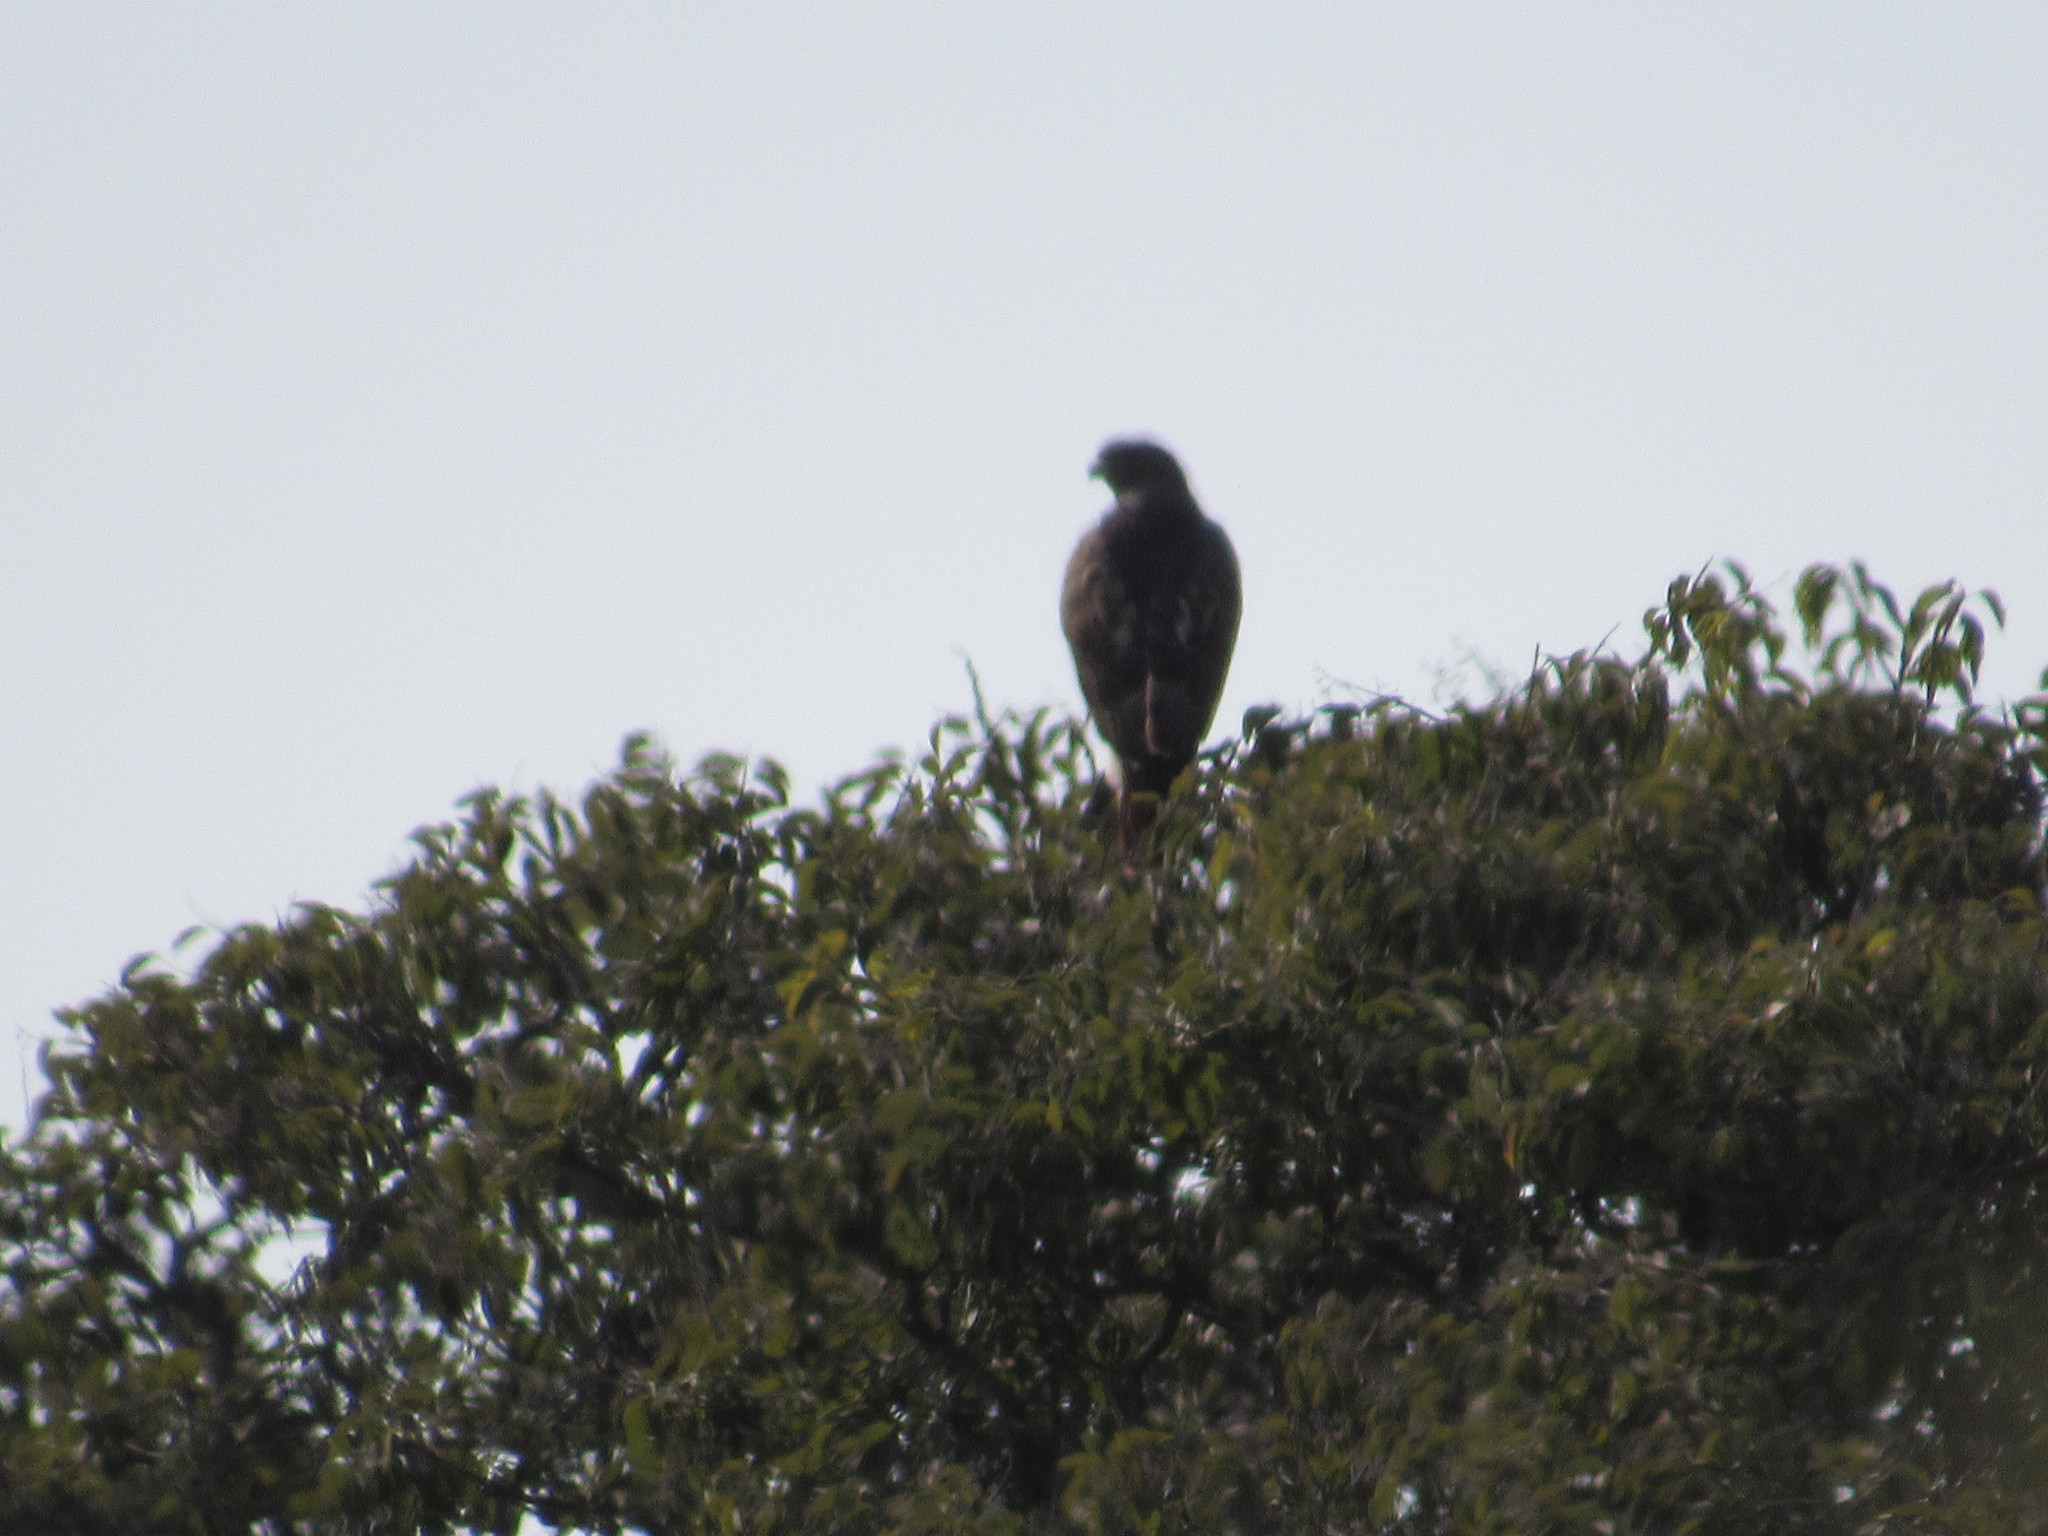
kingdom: Animalia
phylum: Chordata
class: Aves
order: Accipitriformes
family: Accipitridae
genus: Buteo
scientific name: Buteo jamaicensis
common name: Red-tailed hawk
